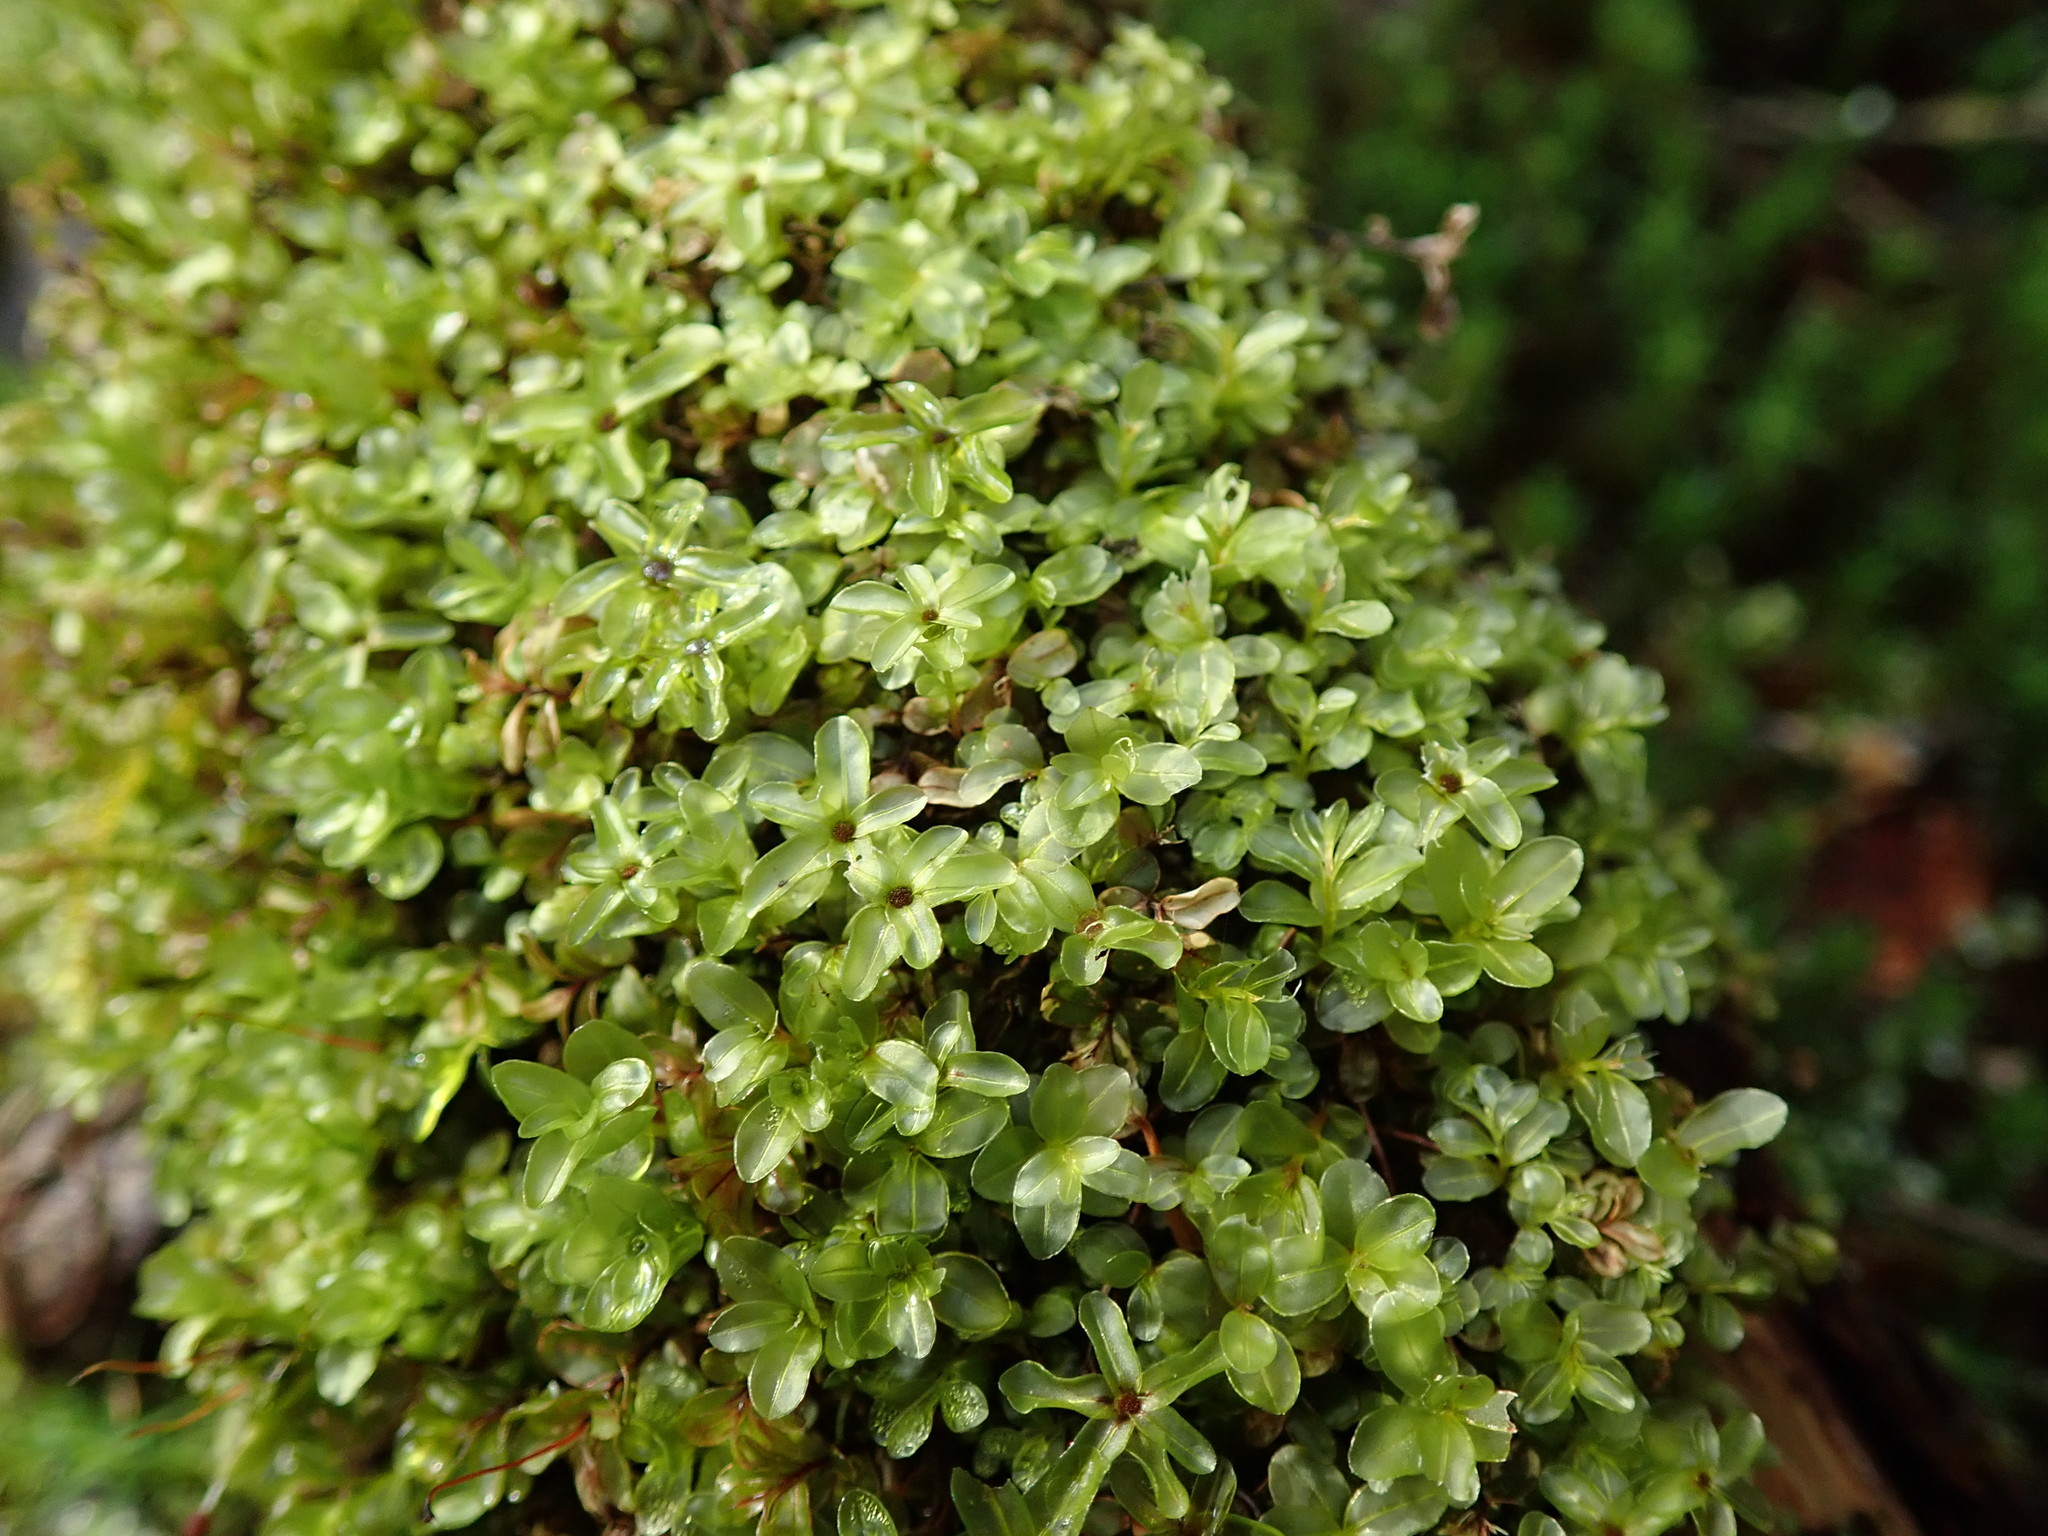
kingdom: Plantae
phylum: Bryophyta
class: Bryopsida
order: Bryales
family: Mniaceae
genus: Rhizomnium
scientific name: Rhizomnium glabrescens
